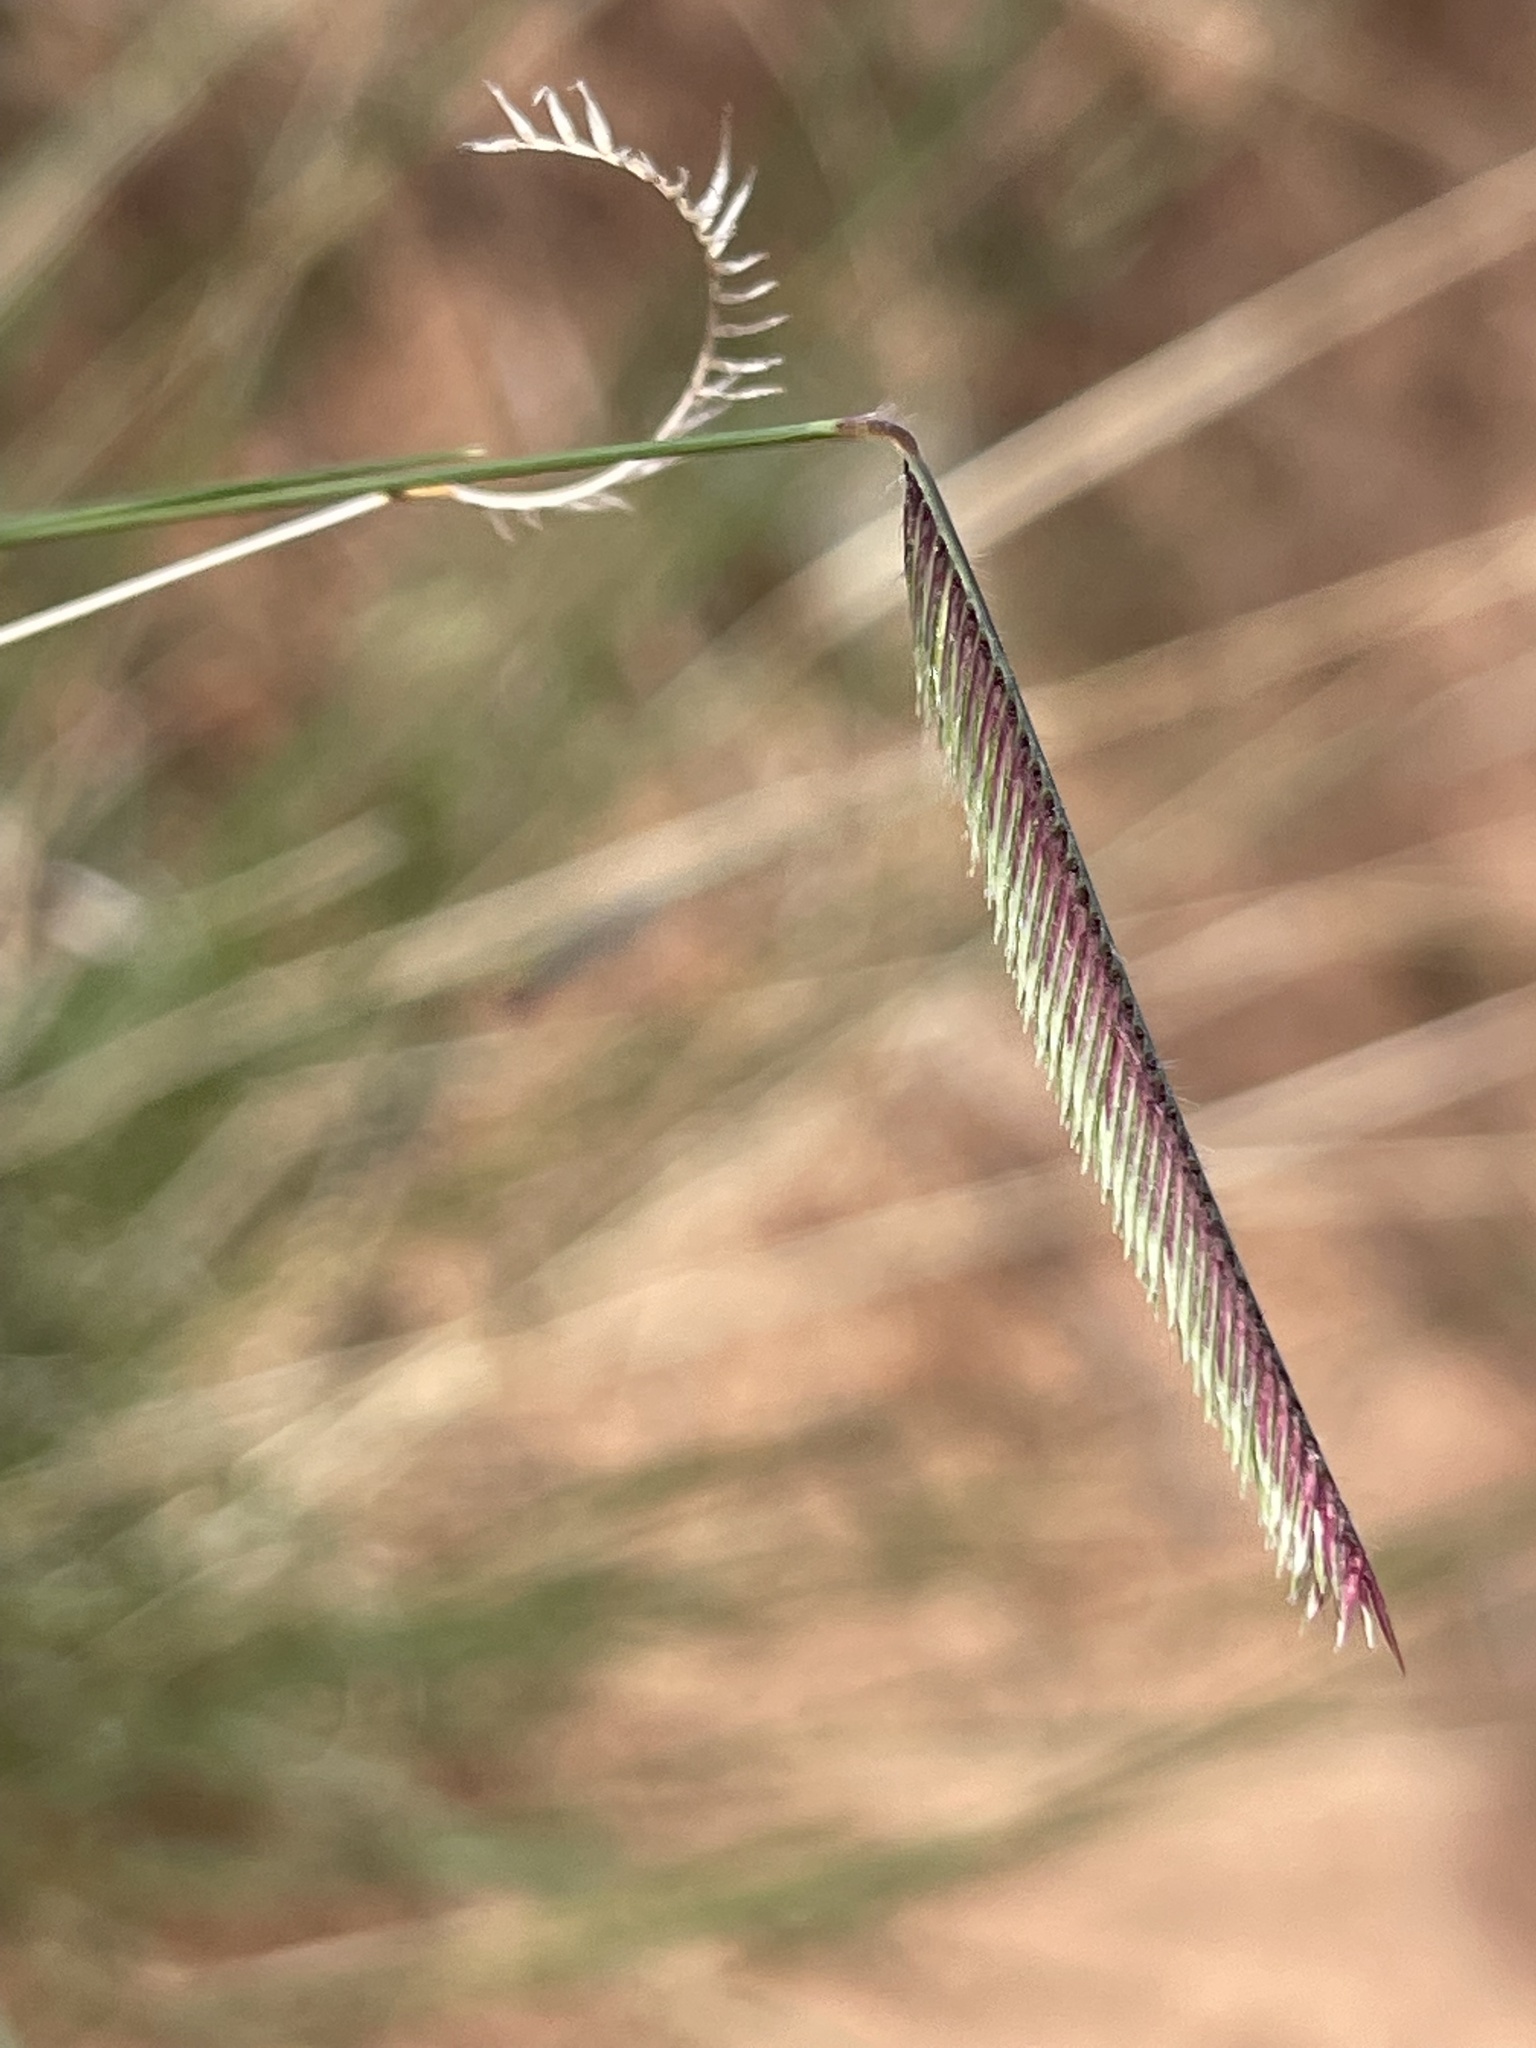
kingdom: Plantae
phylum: Tracheophyta
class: Liliopsida
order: Poales
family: Poaceae
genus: Bouteloua
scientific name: Bouteloua gracilis
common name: Blue grama
